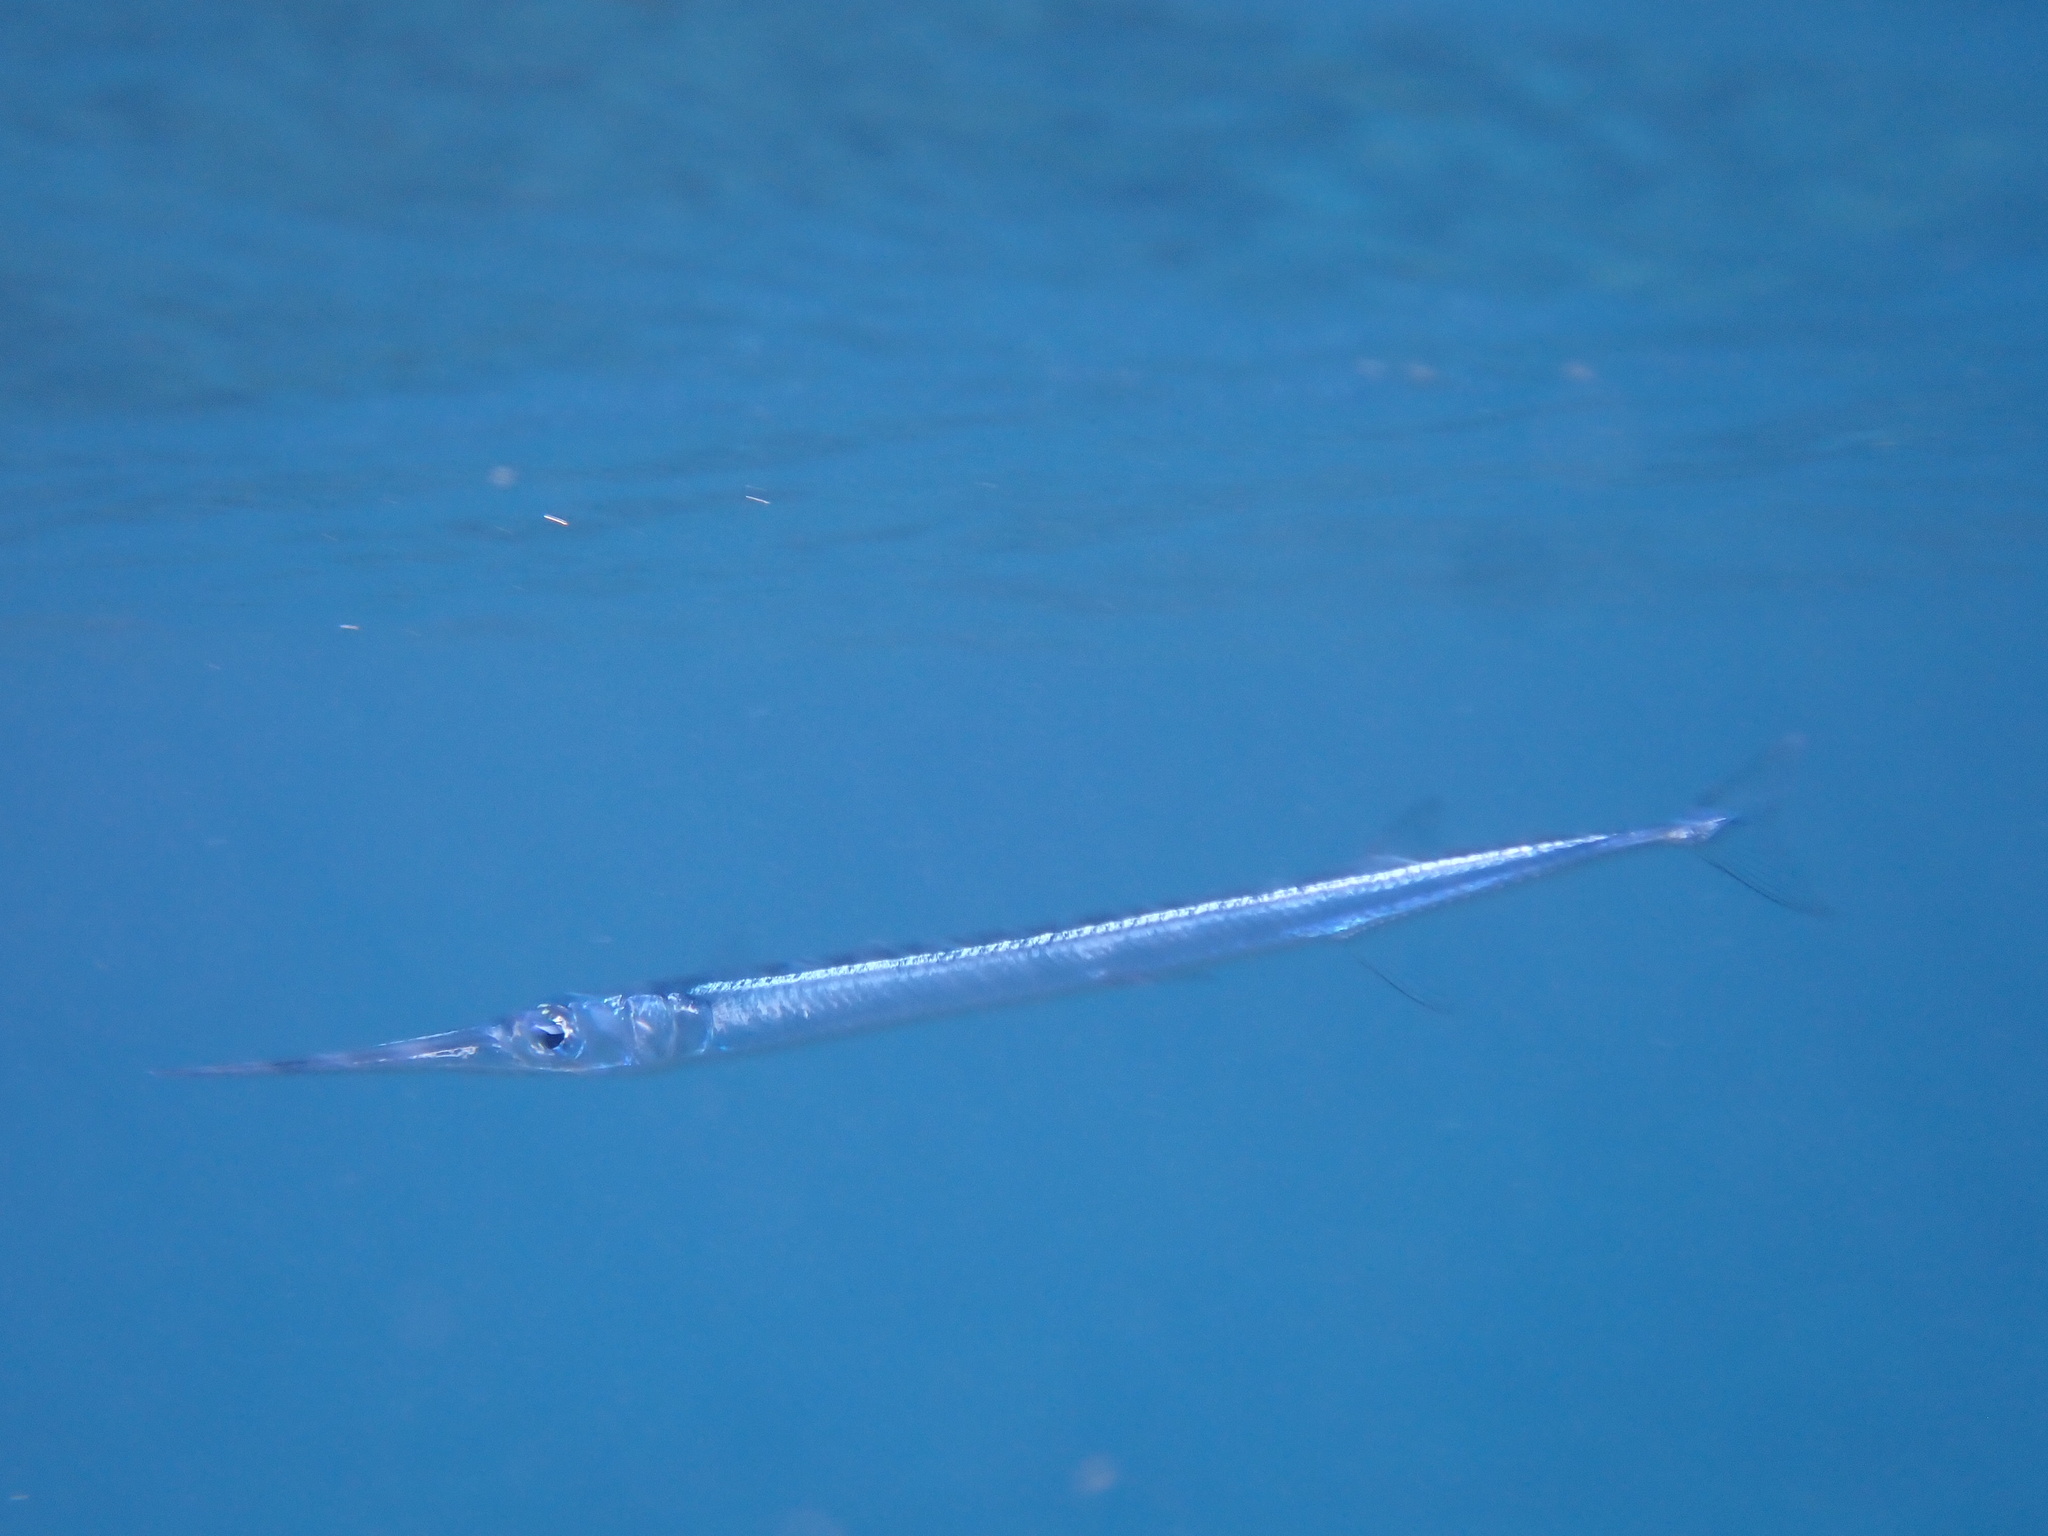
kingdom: Animalia
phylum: Chordata
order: Beloniformes
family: Belonidae
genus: Tylosurus
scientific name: Tylosurus crocodilus
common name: Houndfish
